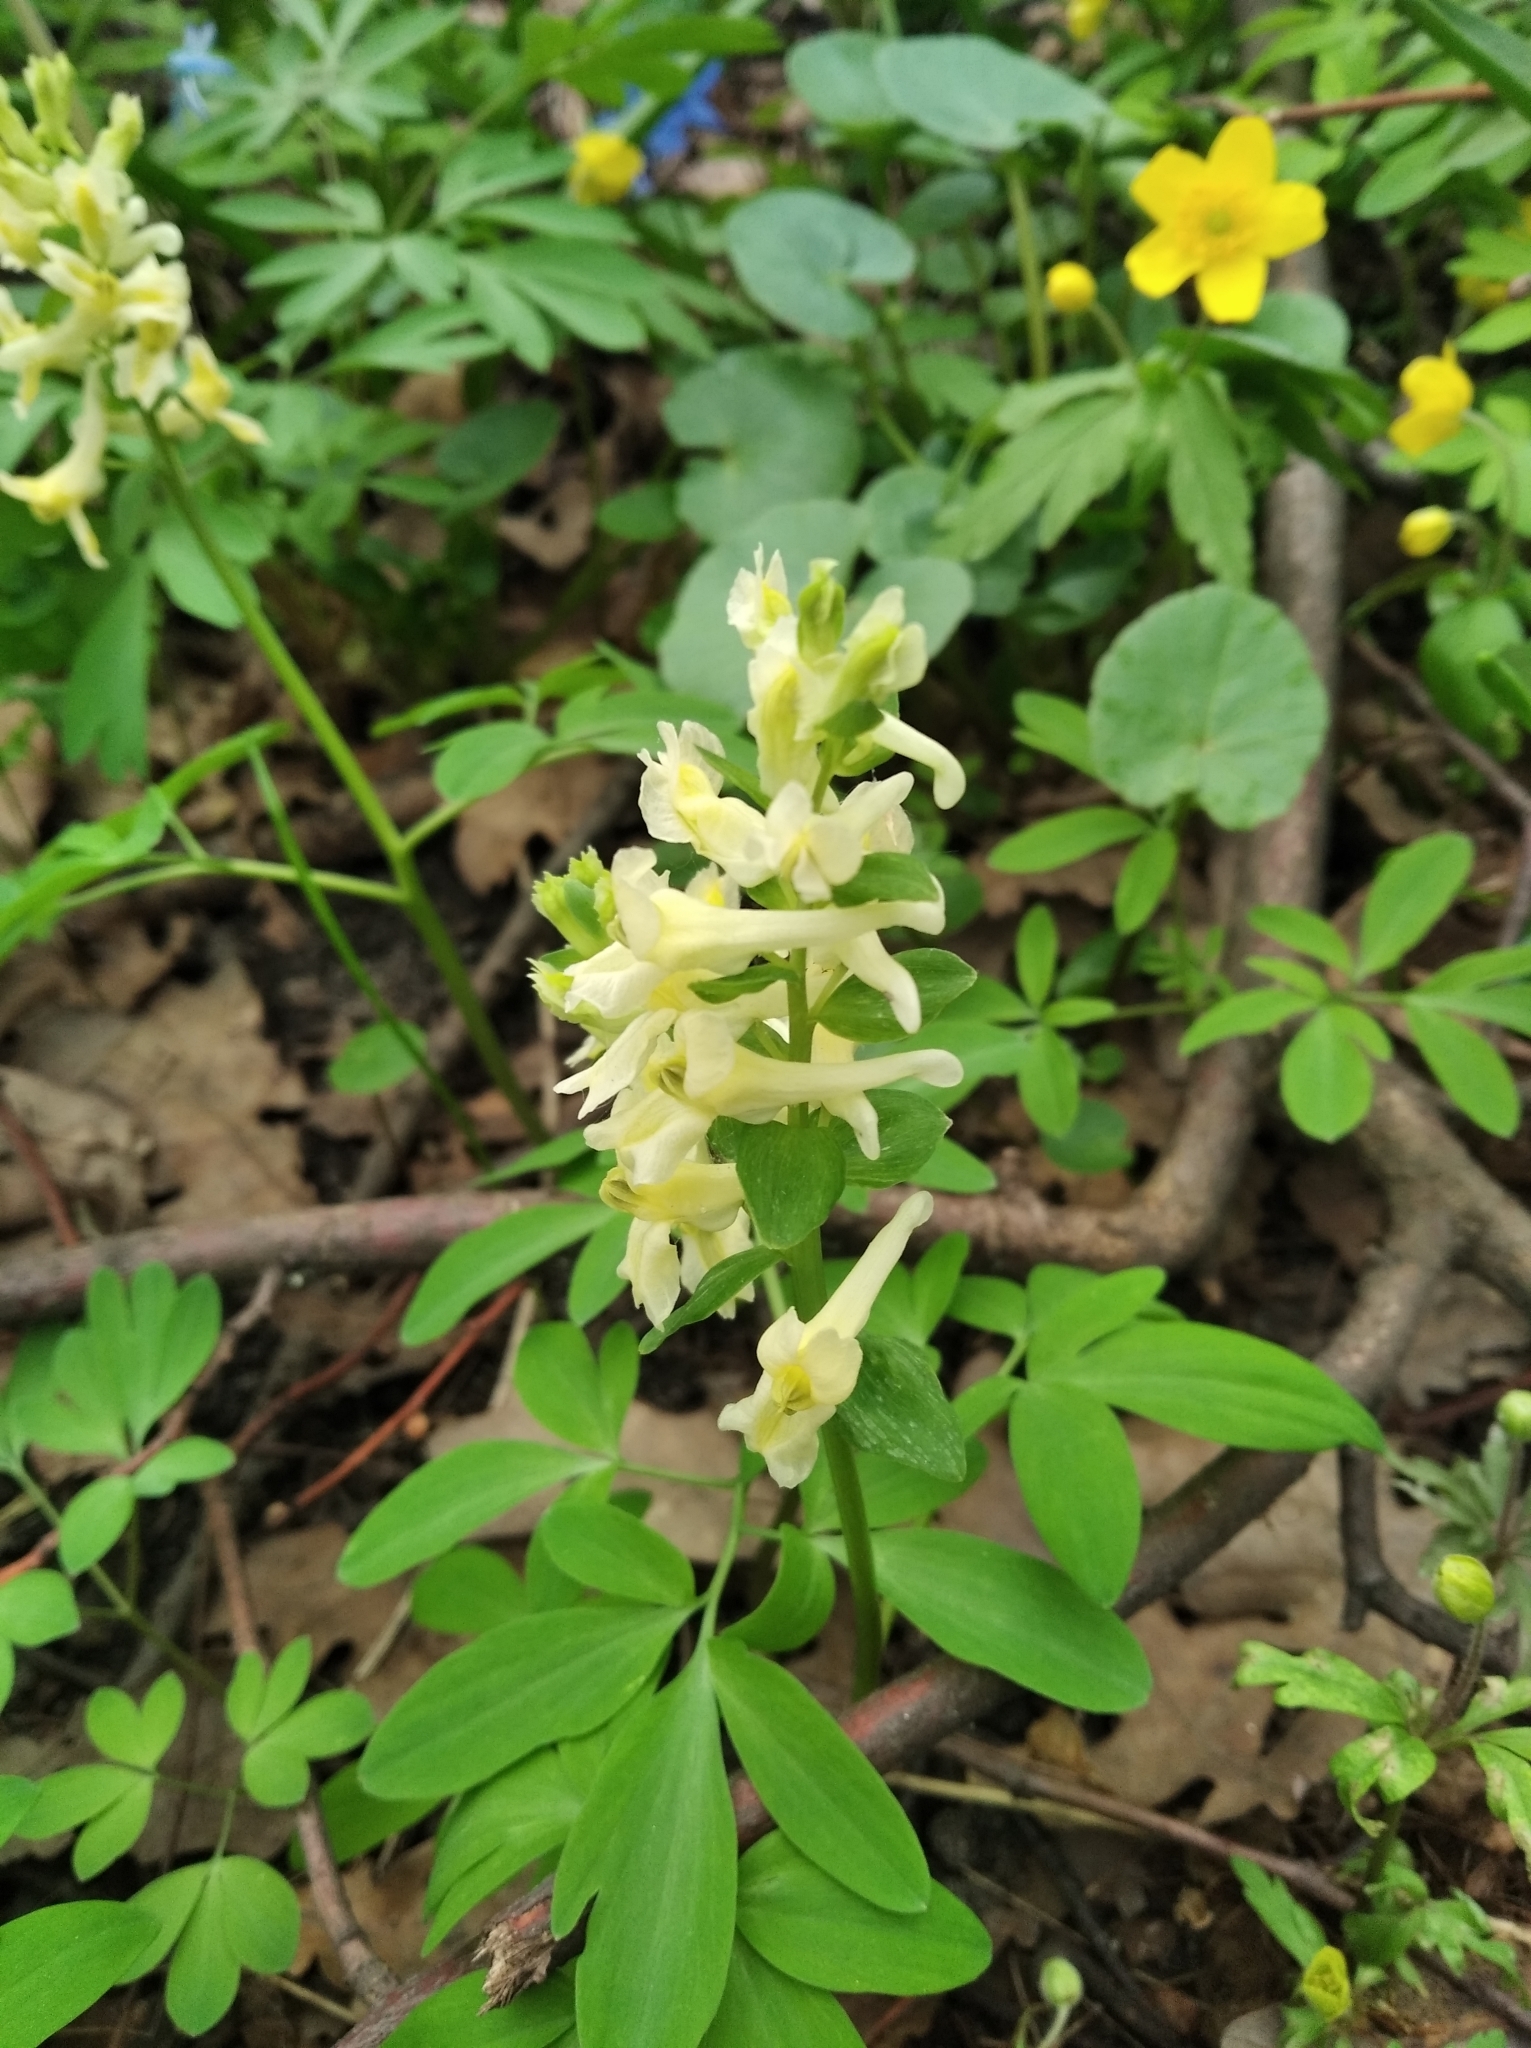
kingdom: Plantae
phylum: Tracheophyta
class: Magnoliopsida
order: Ranunculales
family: Papaveraceae
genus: Corydalis
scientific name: Corydalis cava
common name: Hollowroot
